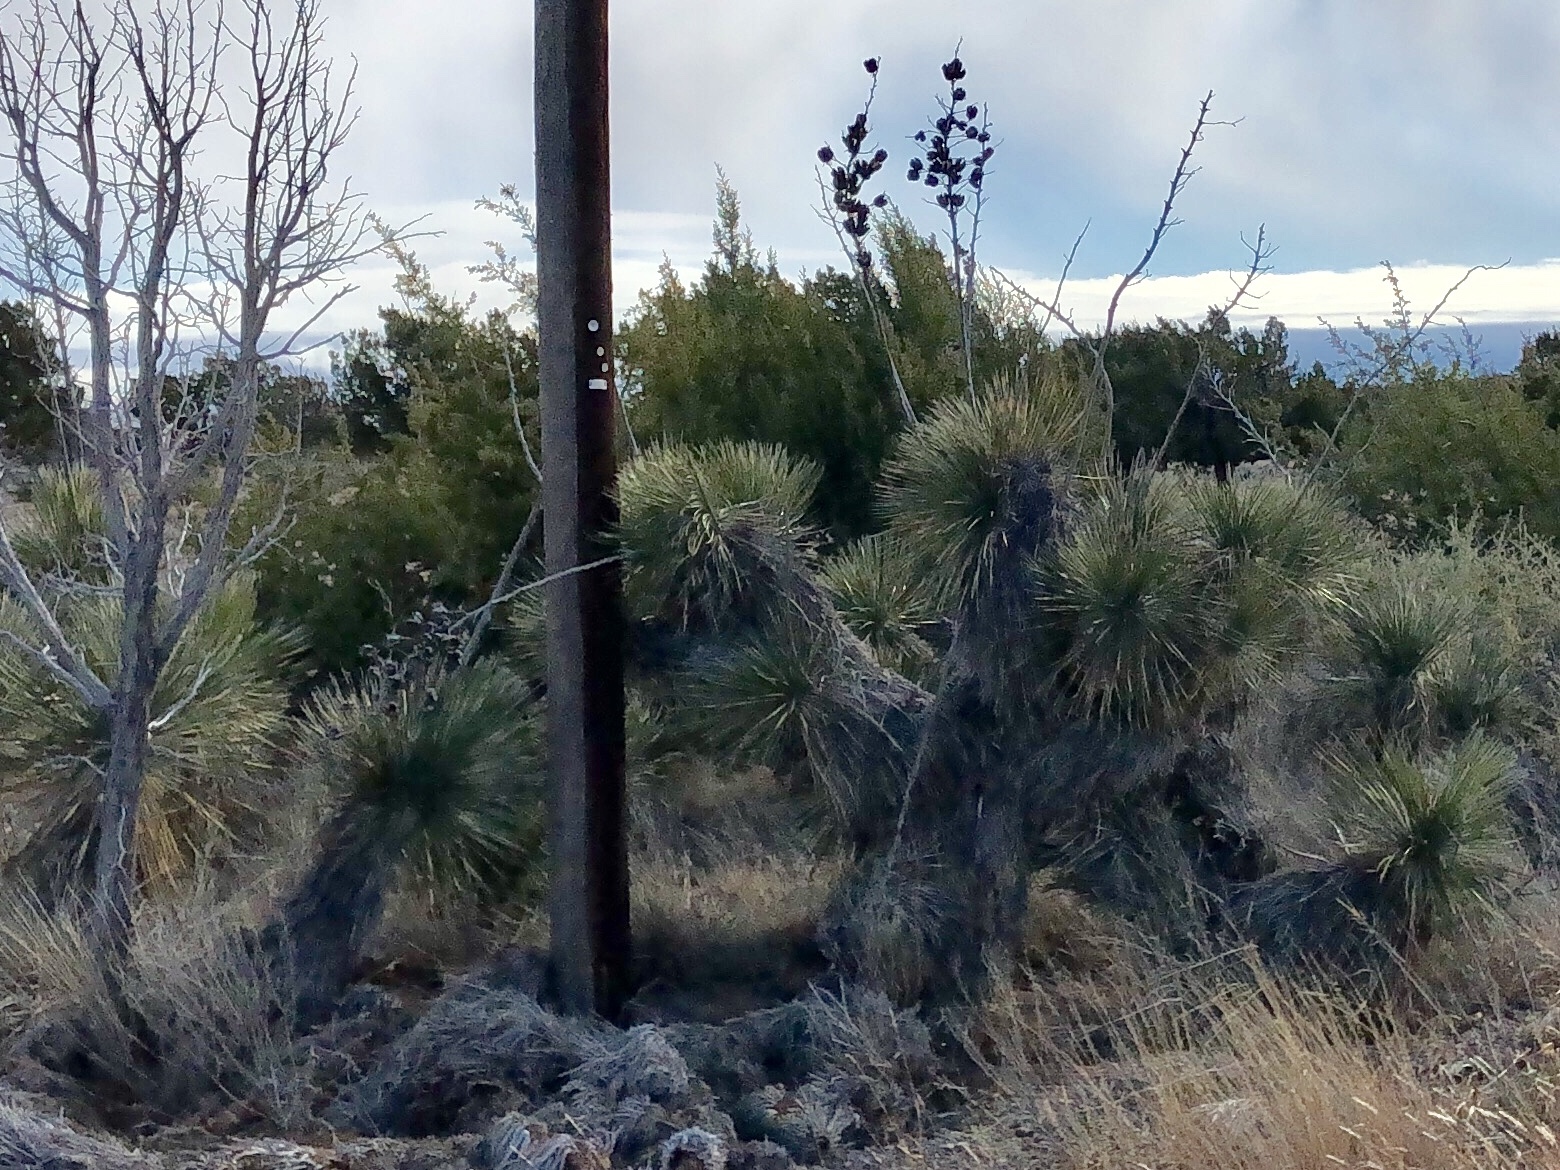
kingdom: Plantae
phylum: Tracheophyta
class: Liliopsida
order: Asparagales
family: Asparagaceae
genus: Yucca
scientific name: Yucca elata
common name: Palmella
